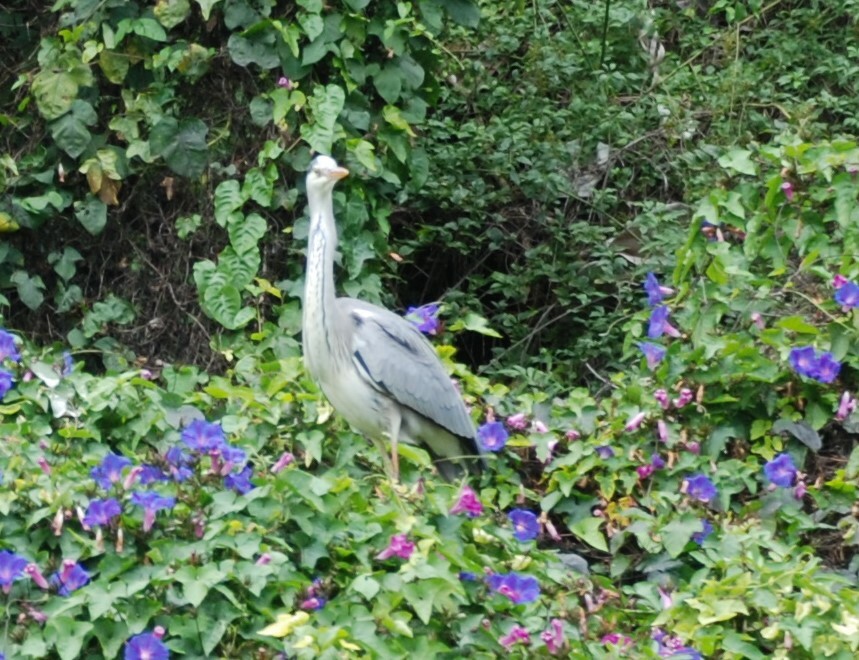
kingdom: Animalia
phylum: Chordata
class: Aves
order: Pelecaniformes
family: Ardeidae
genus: Ardea
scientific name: Ardea cinerea
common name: Grey heron
